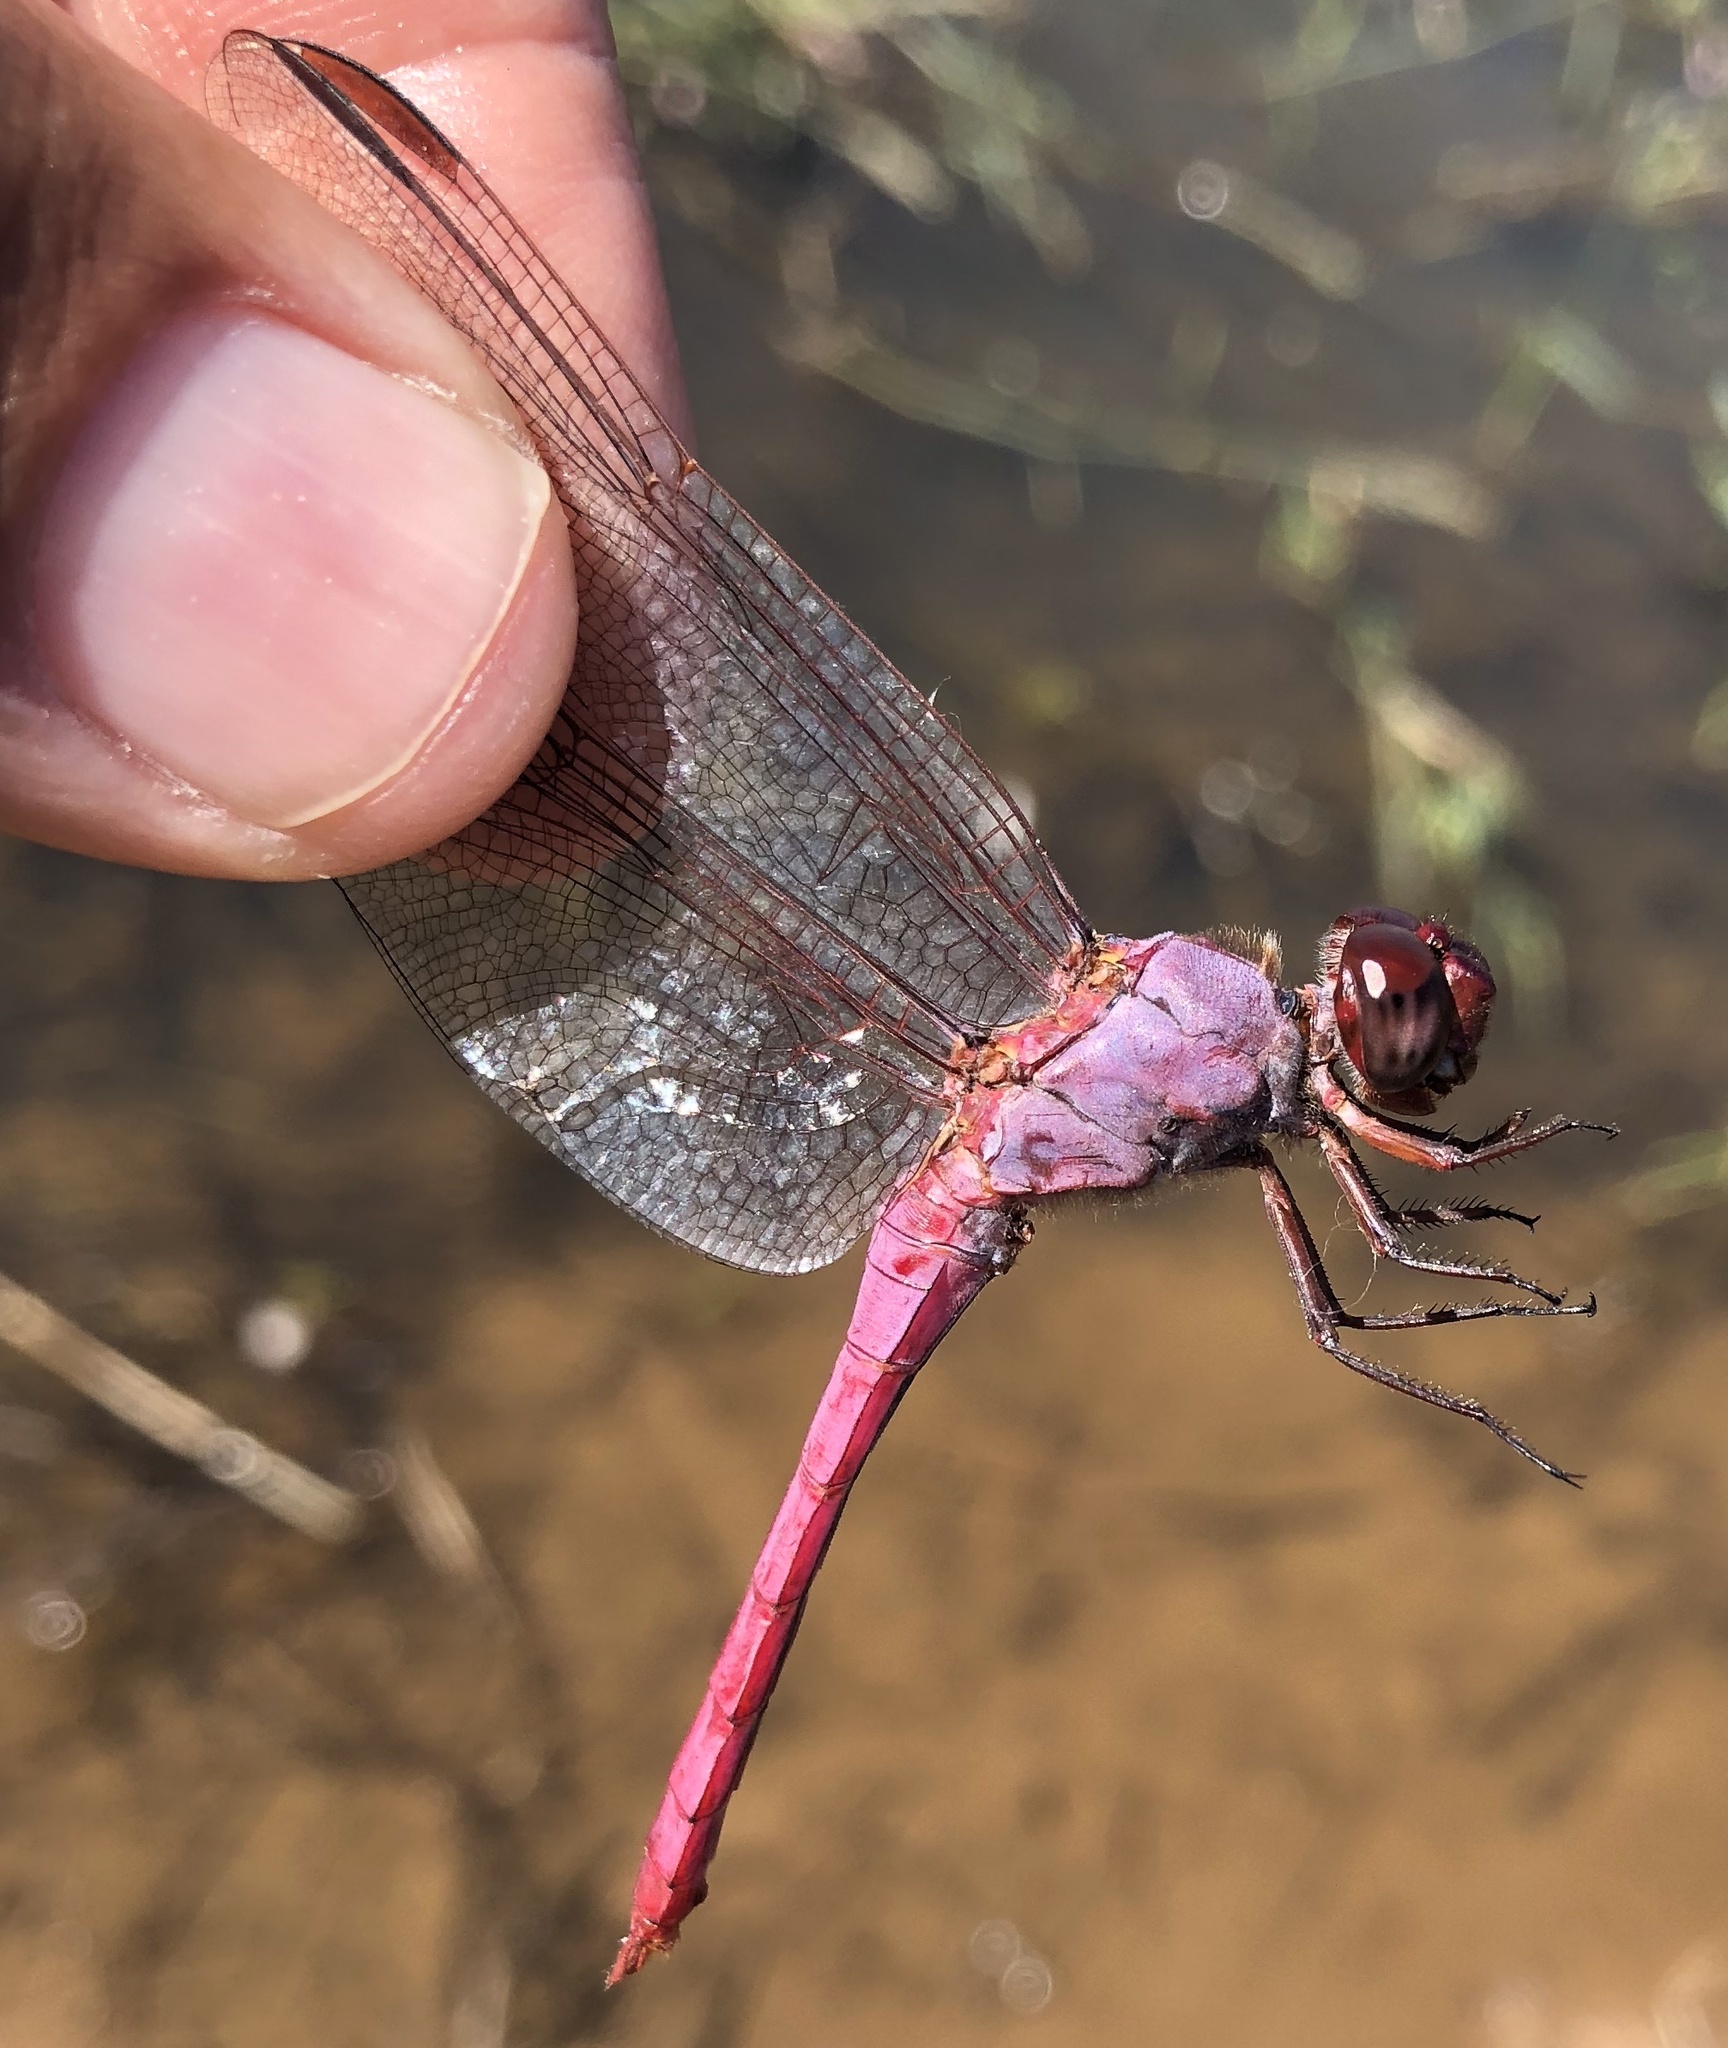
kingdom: Animalia
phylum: Arthropoda
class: Insecta
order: Odonata
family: Libellulidae
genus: Orthemis
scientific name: Orthemis ferruginea
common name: Roseate skimmer
